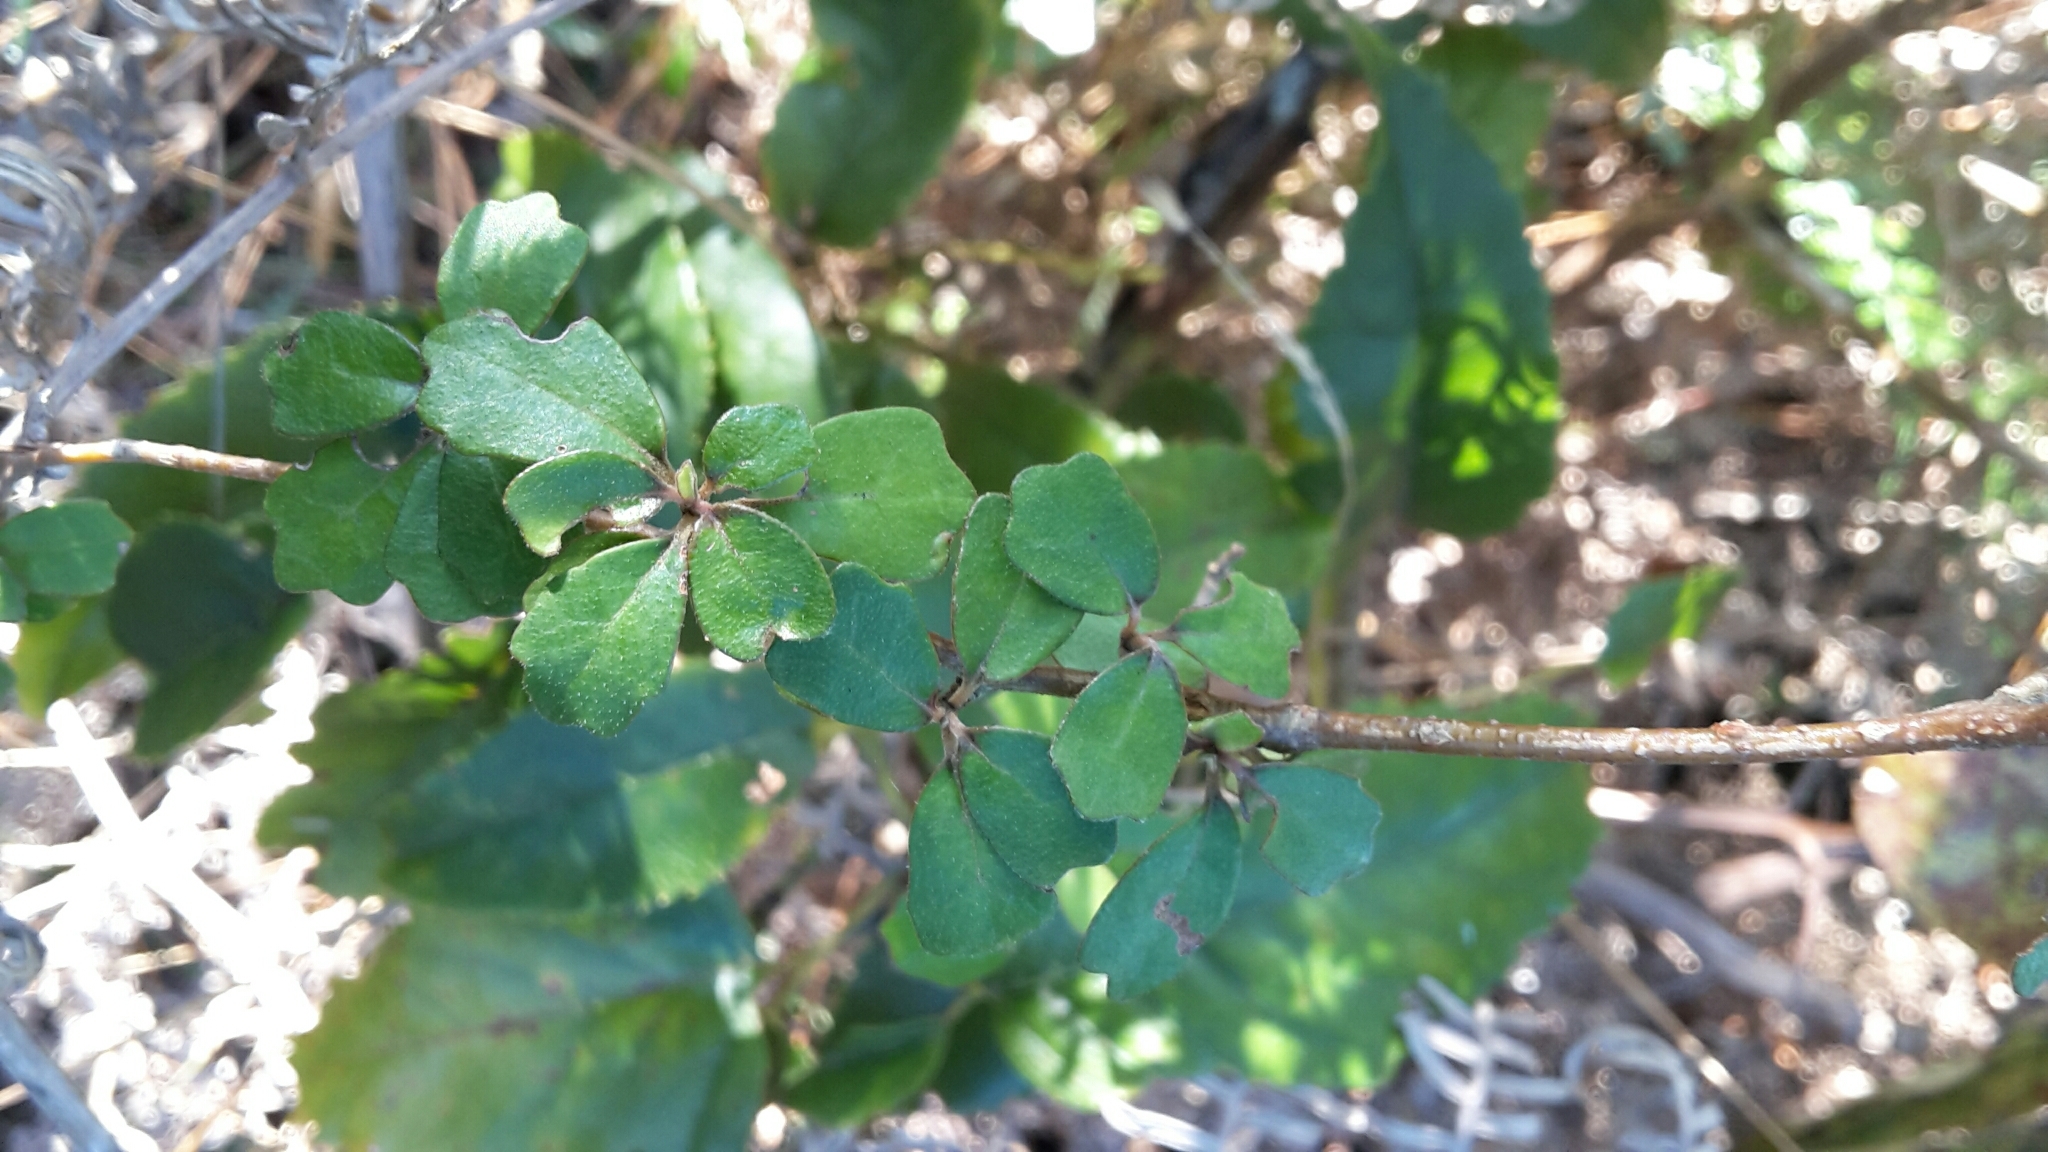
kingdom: Plantae
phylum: Tracheophyta
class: Magnoliopsida
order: Apiales
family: Pennantiaceae
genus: Pennantia
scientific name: Pennantia corymbosa
